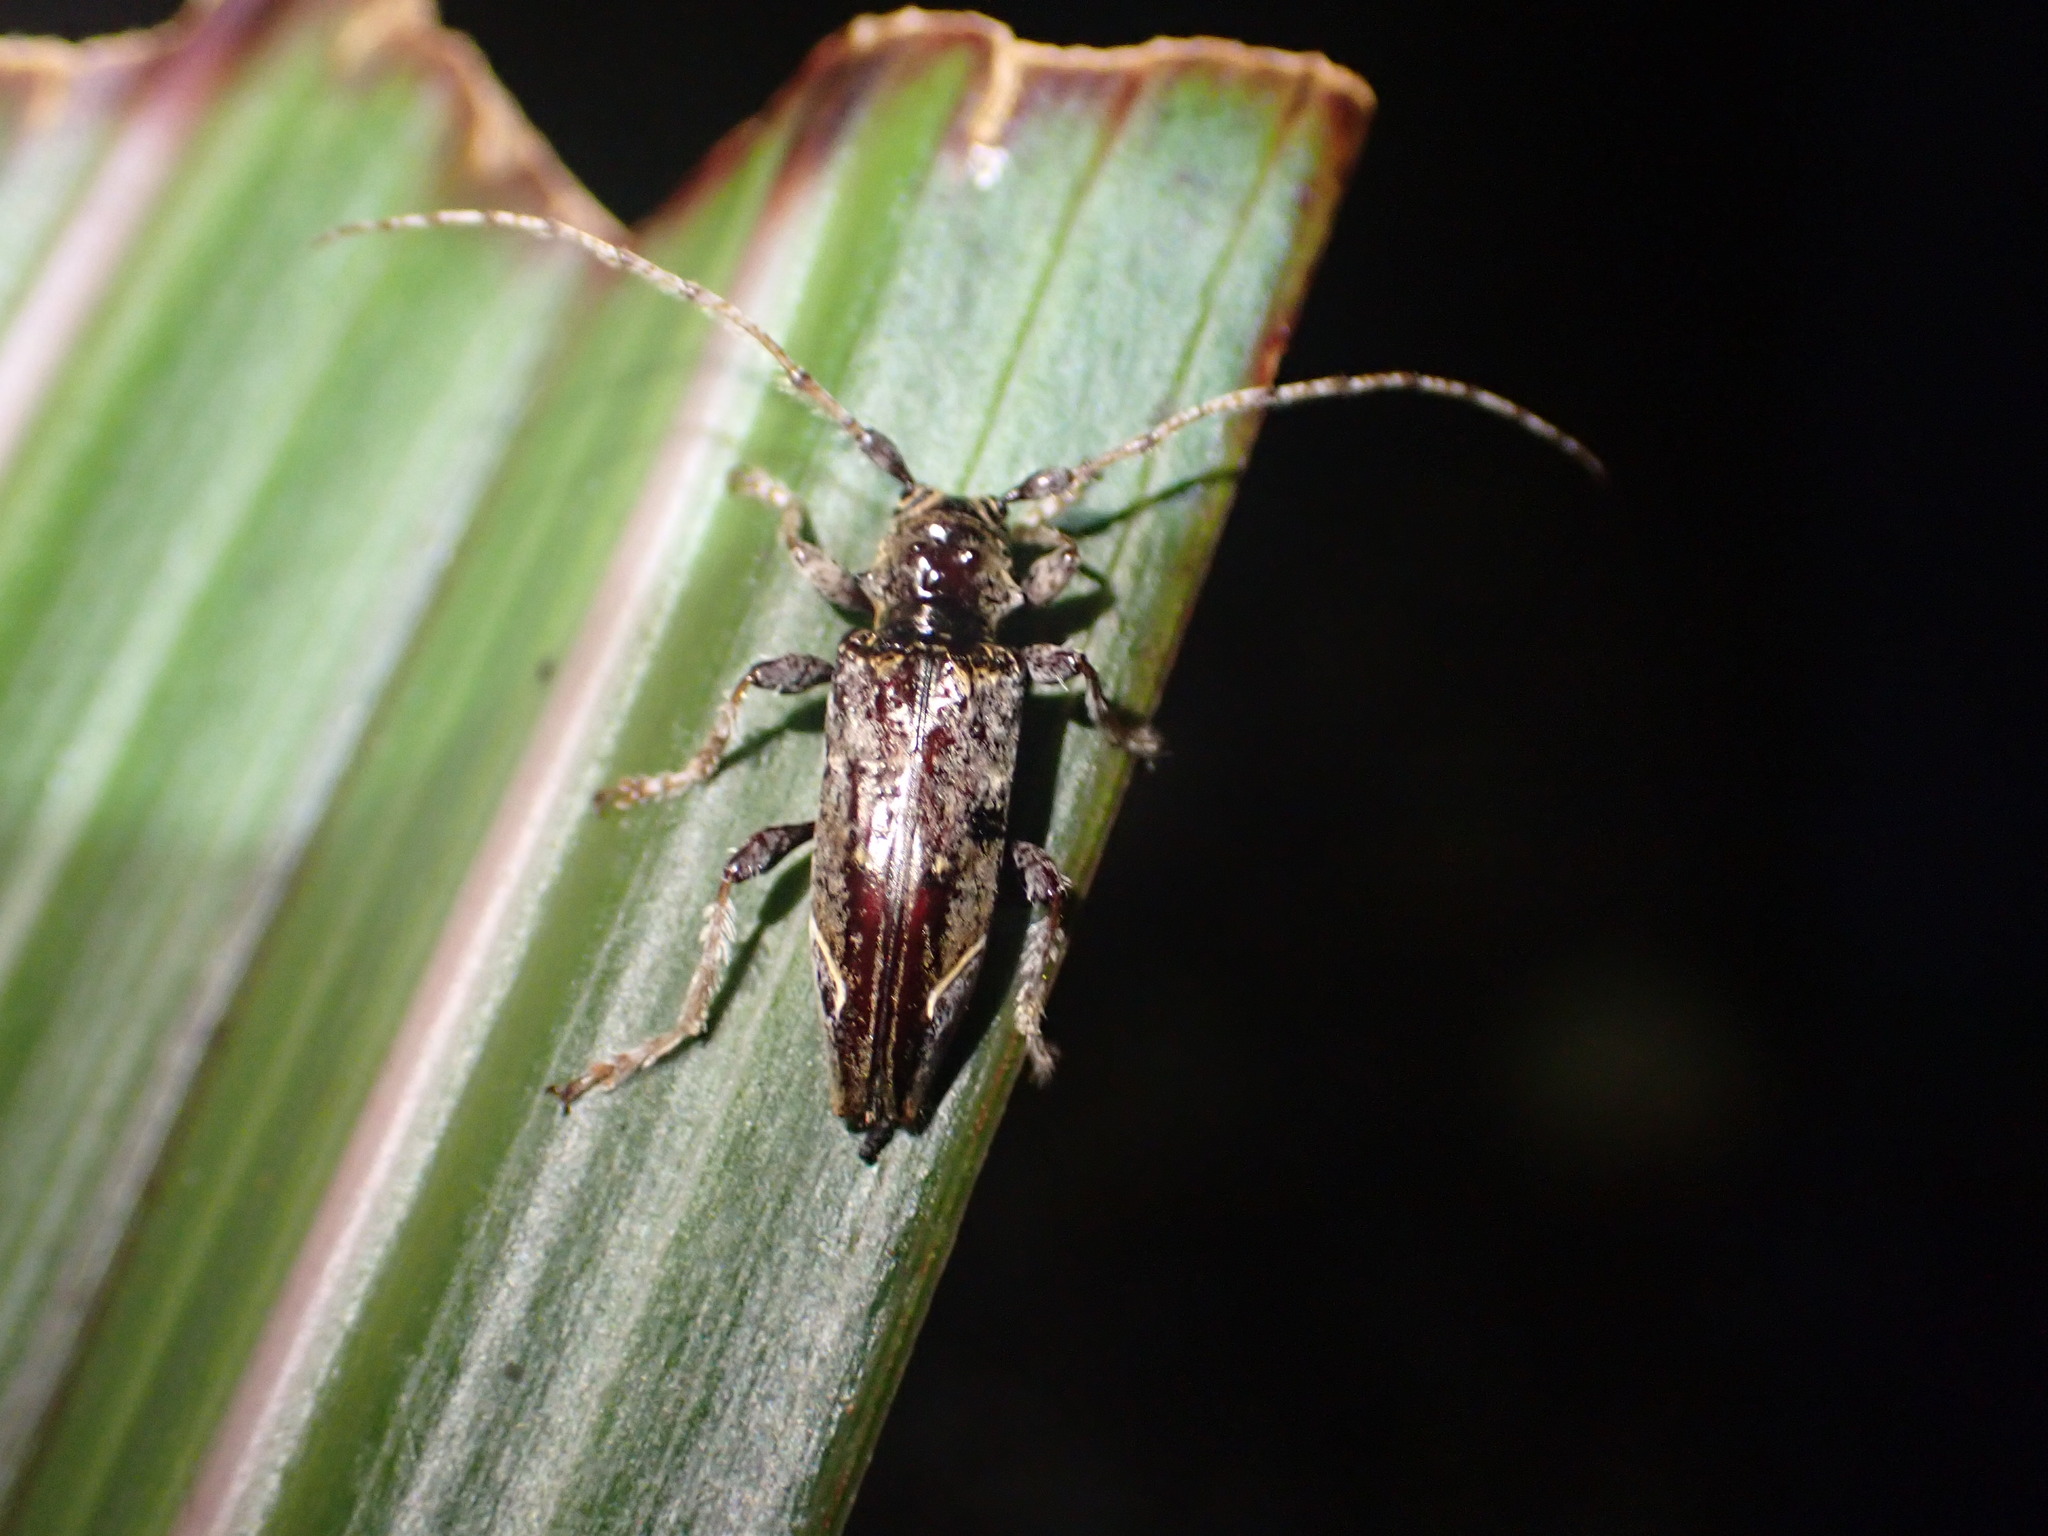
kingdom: Animalia
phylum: Arthropoda
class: Insecta
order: Coleoptera
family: Cerambycidae
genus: Tetrorea
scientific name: Tetrorea cilipes
